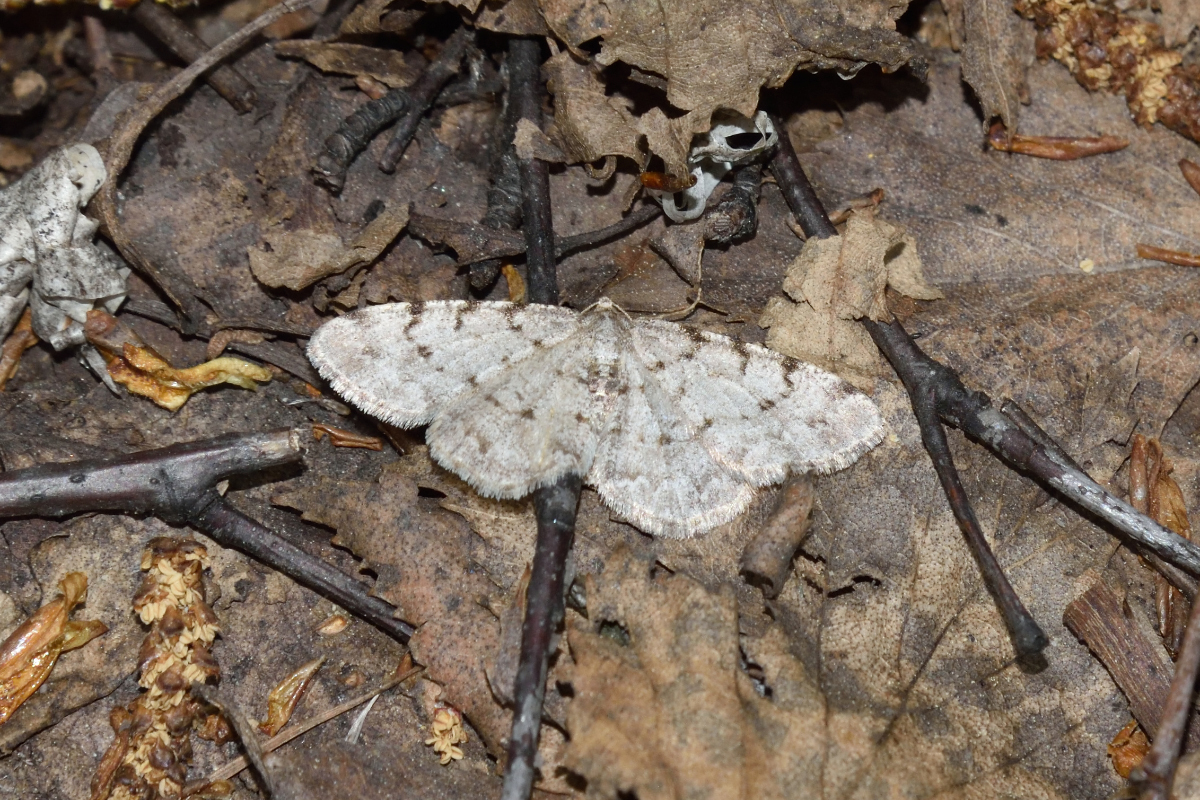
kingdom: Animalia
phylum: Arthropoda
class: Insecta
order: Lepidoptera
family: Geometridae
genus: Aethalura
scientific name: Aethalura punctulata
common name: Grey birch
